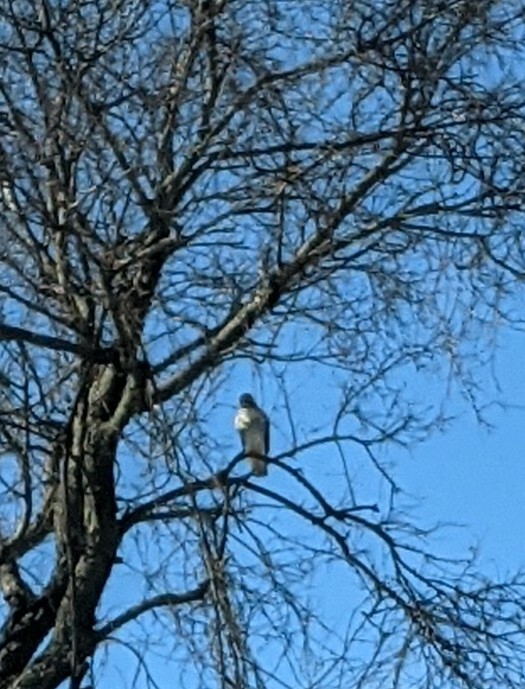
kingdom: Animalia
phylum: Chordata
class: Aves
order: Accipitriformes
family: Accipitridae
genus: Buteo
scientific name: Buteo jamaicensis
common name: Red-tailed hawk
